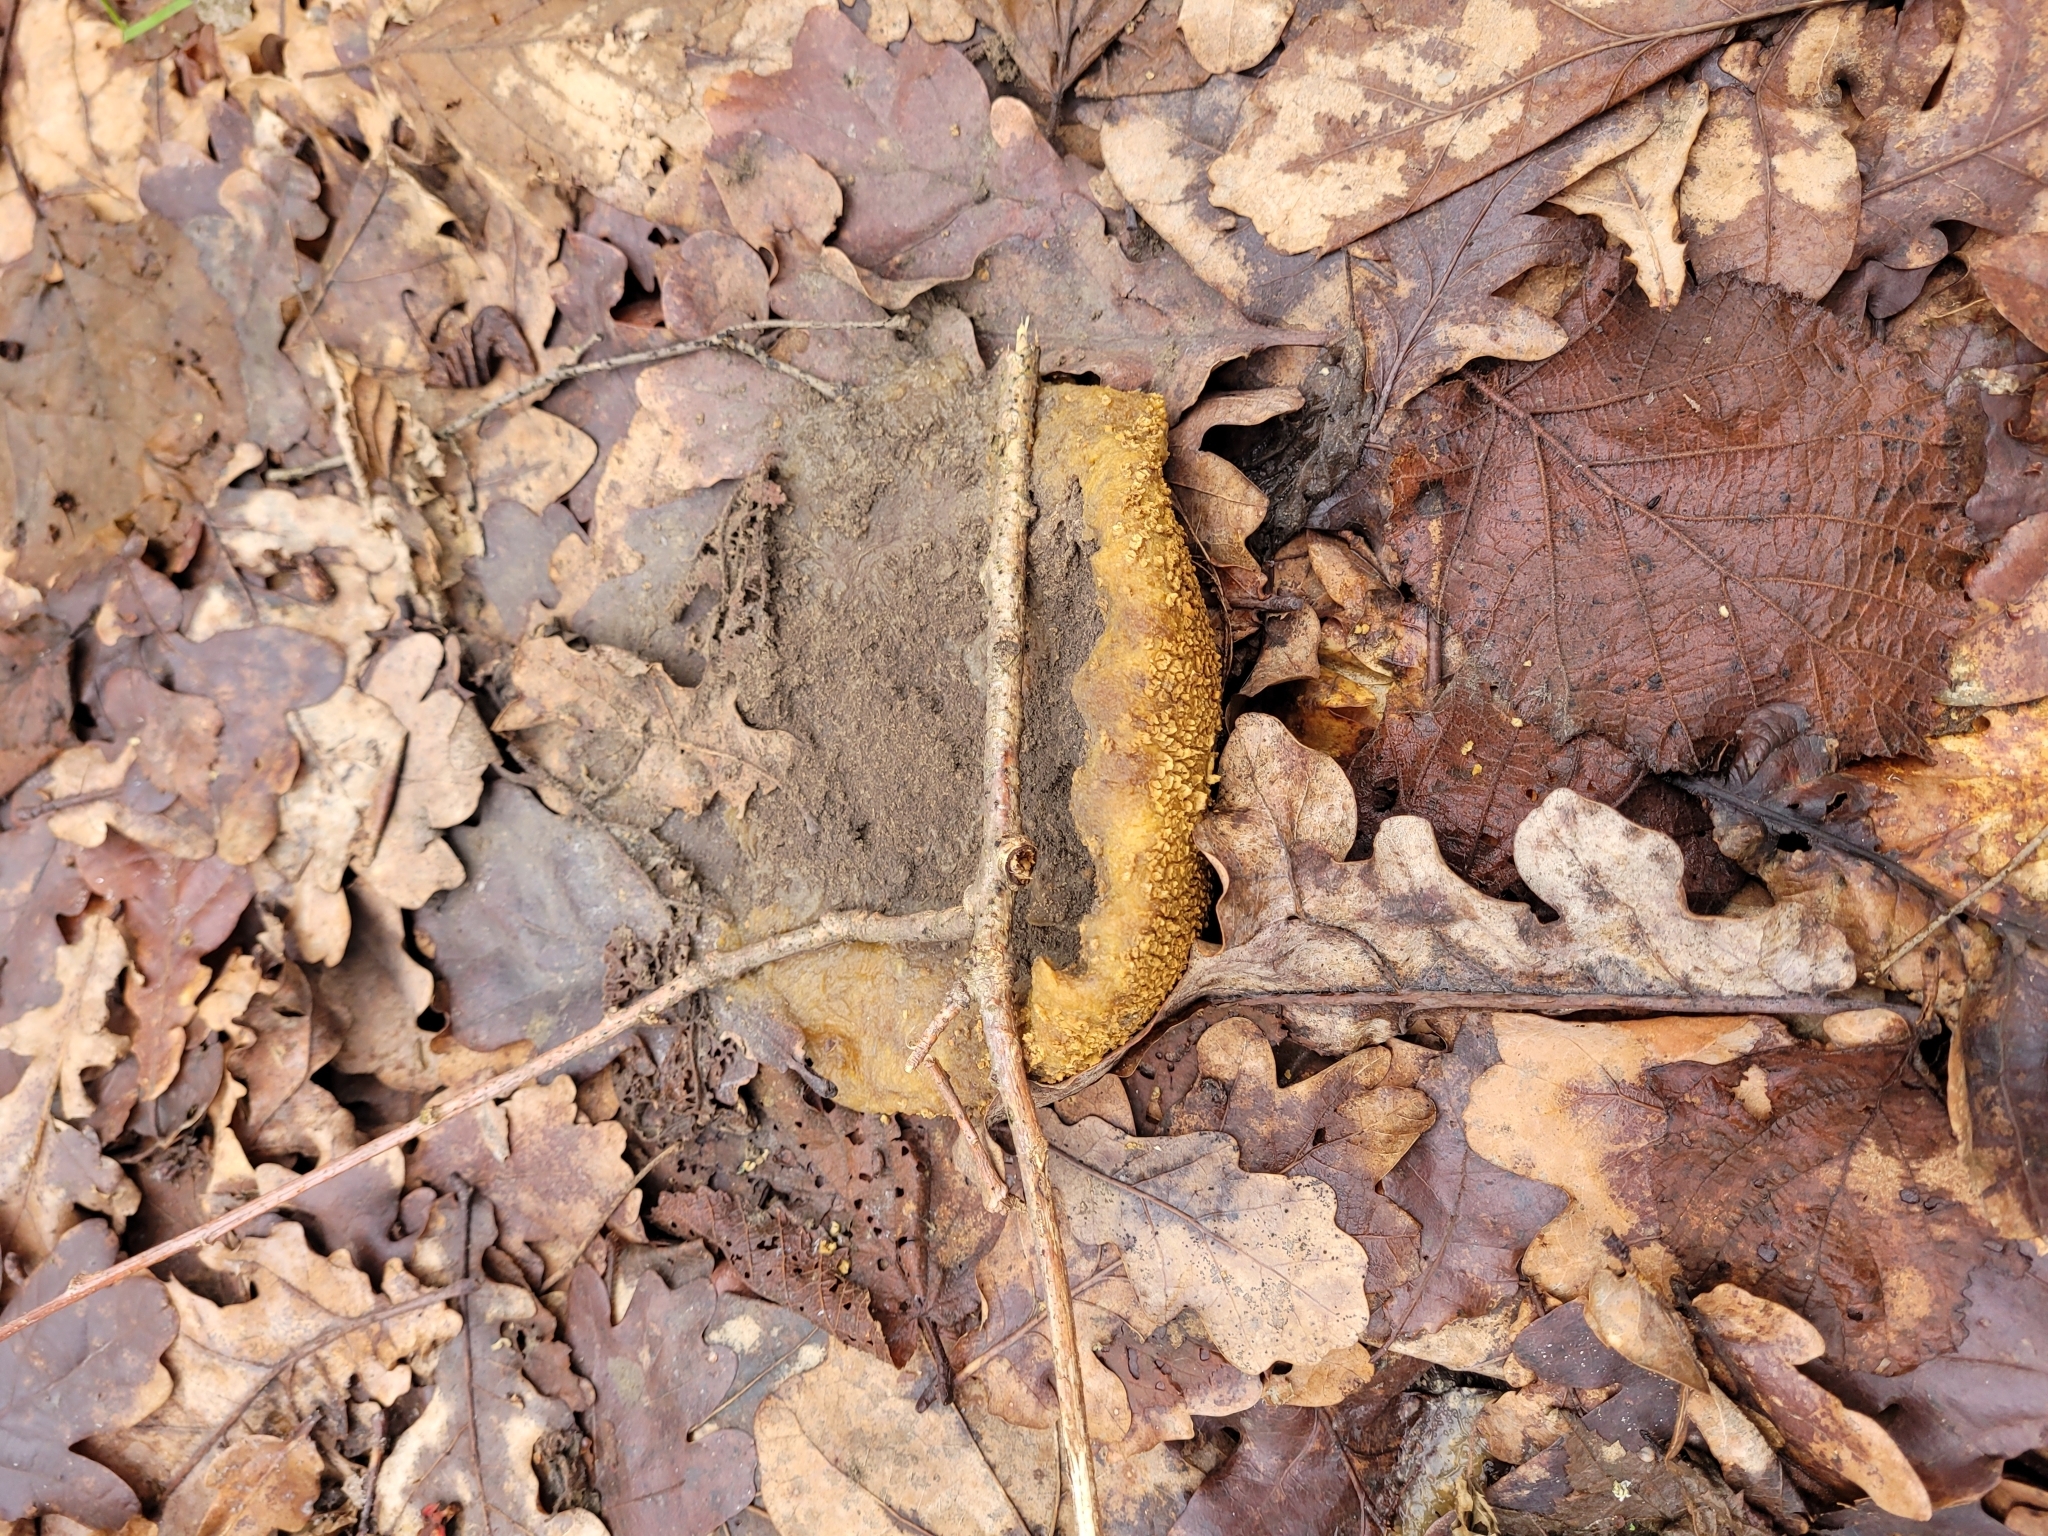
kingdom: Fungi
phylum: Basidiomycota
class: Agaricomycetes
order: Boletales
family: Sclerodermataceae
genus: Scleroderma
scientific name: Scleroderma citrinum
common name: Common earthball
